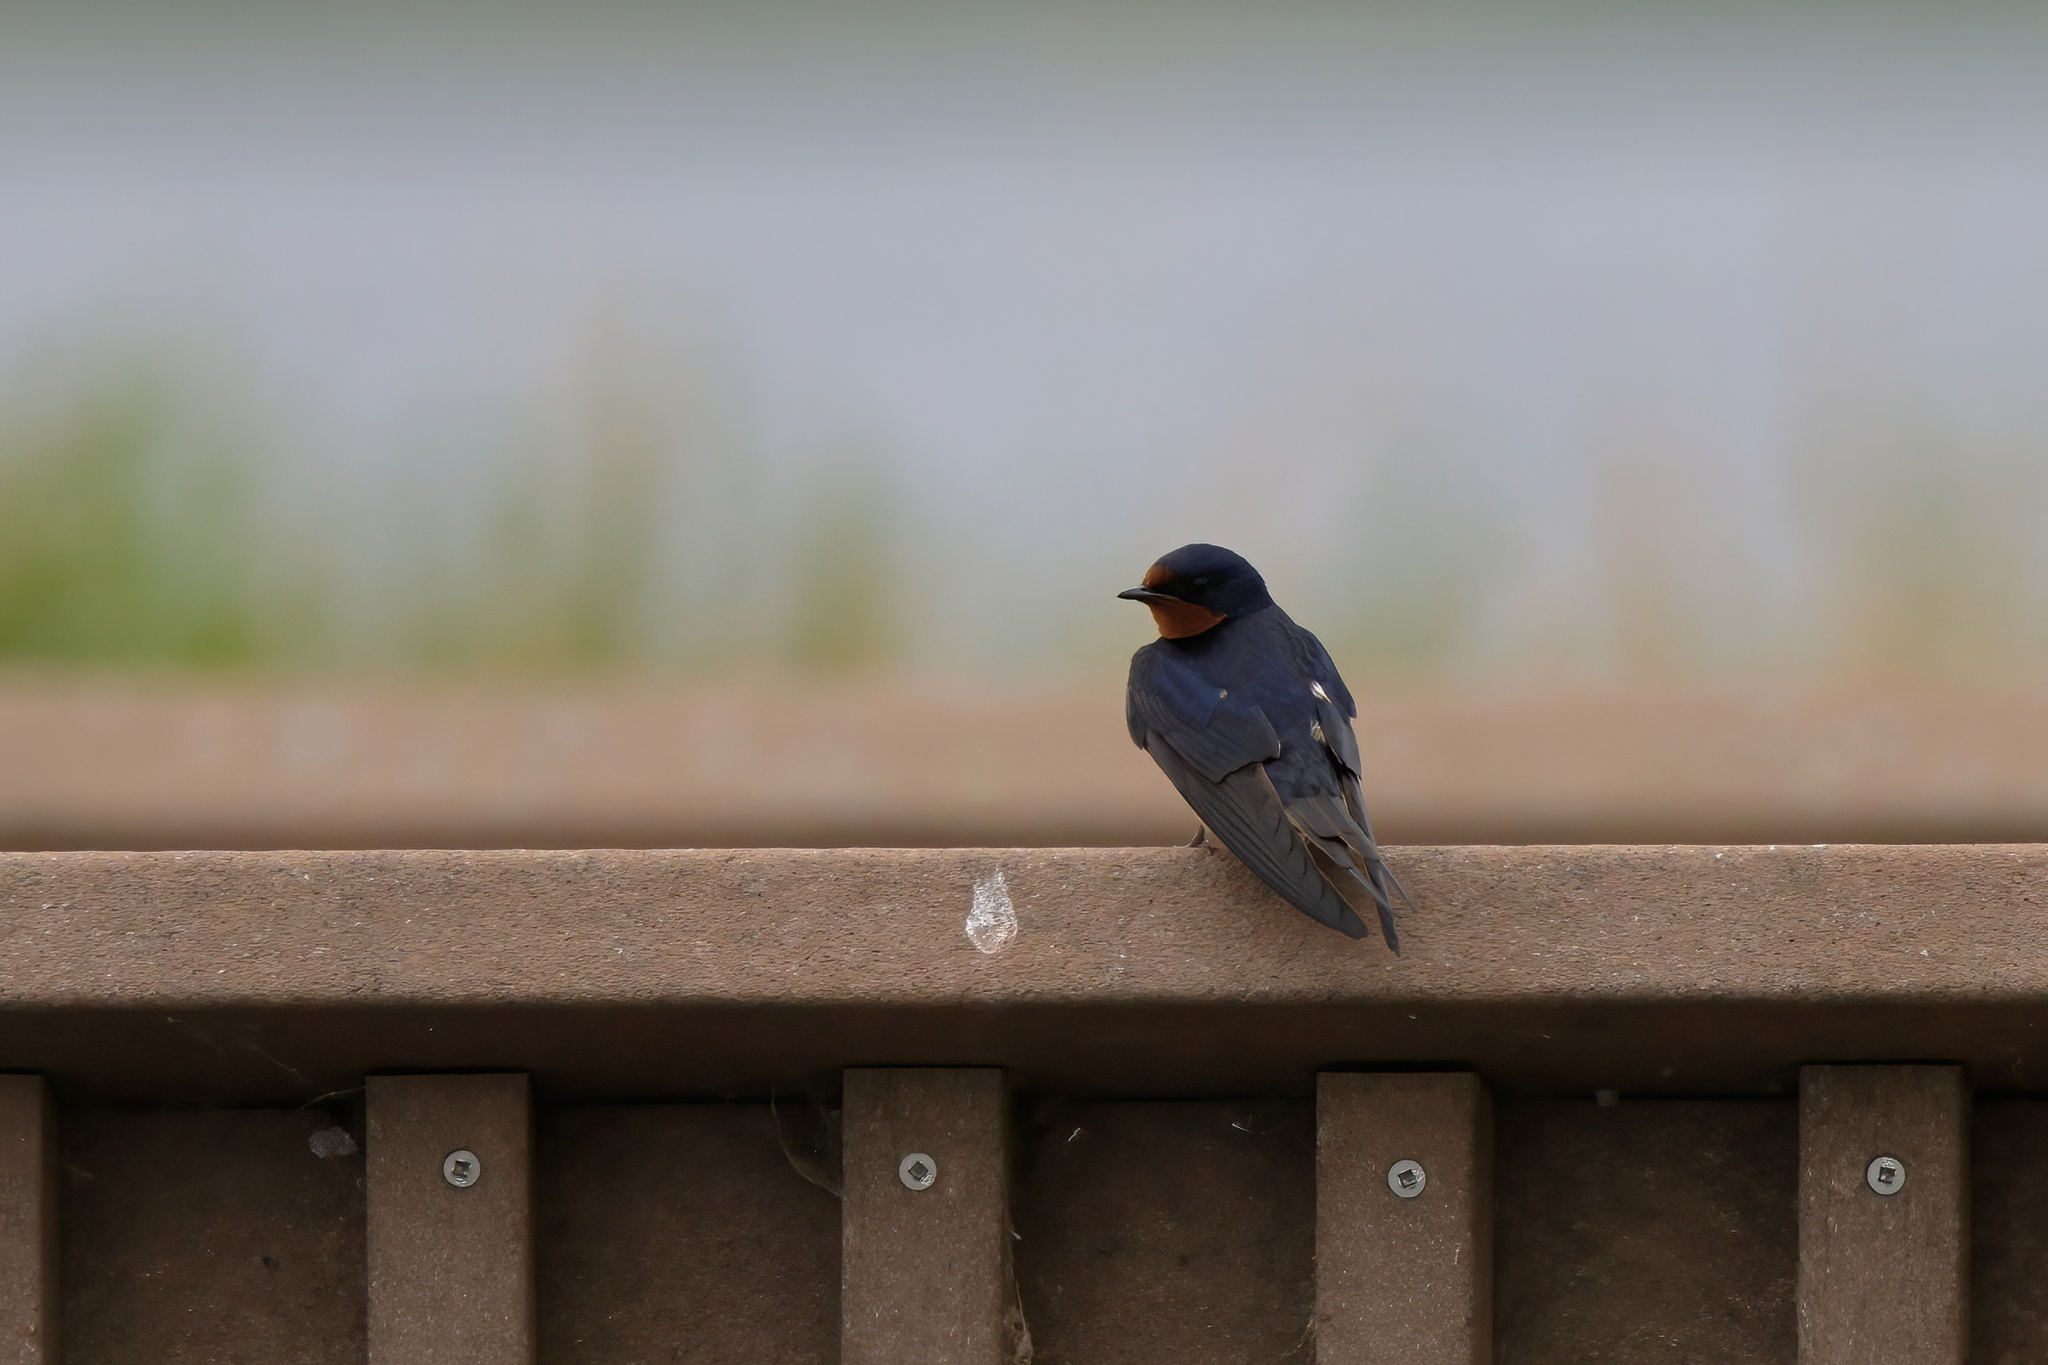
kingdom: Animalia
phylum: Chordata
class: Aves
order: Passeriformes
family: Hirundinidae
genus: Hirundo
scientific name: Hirundo rustica
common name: Barn swallow
